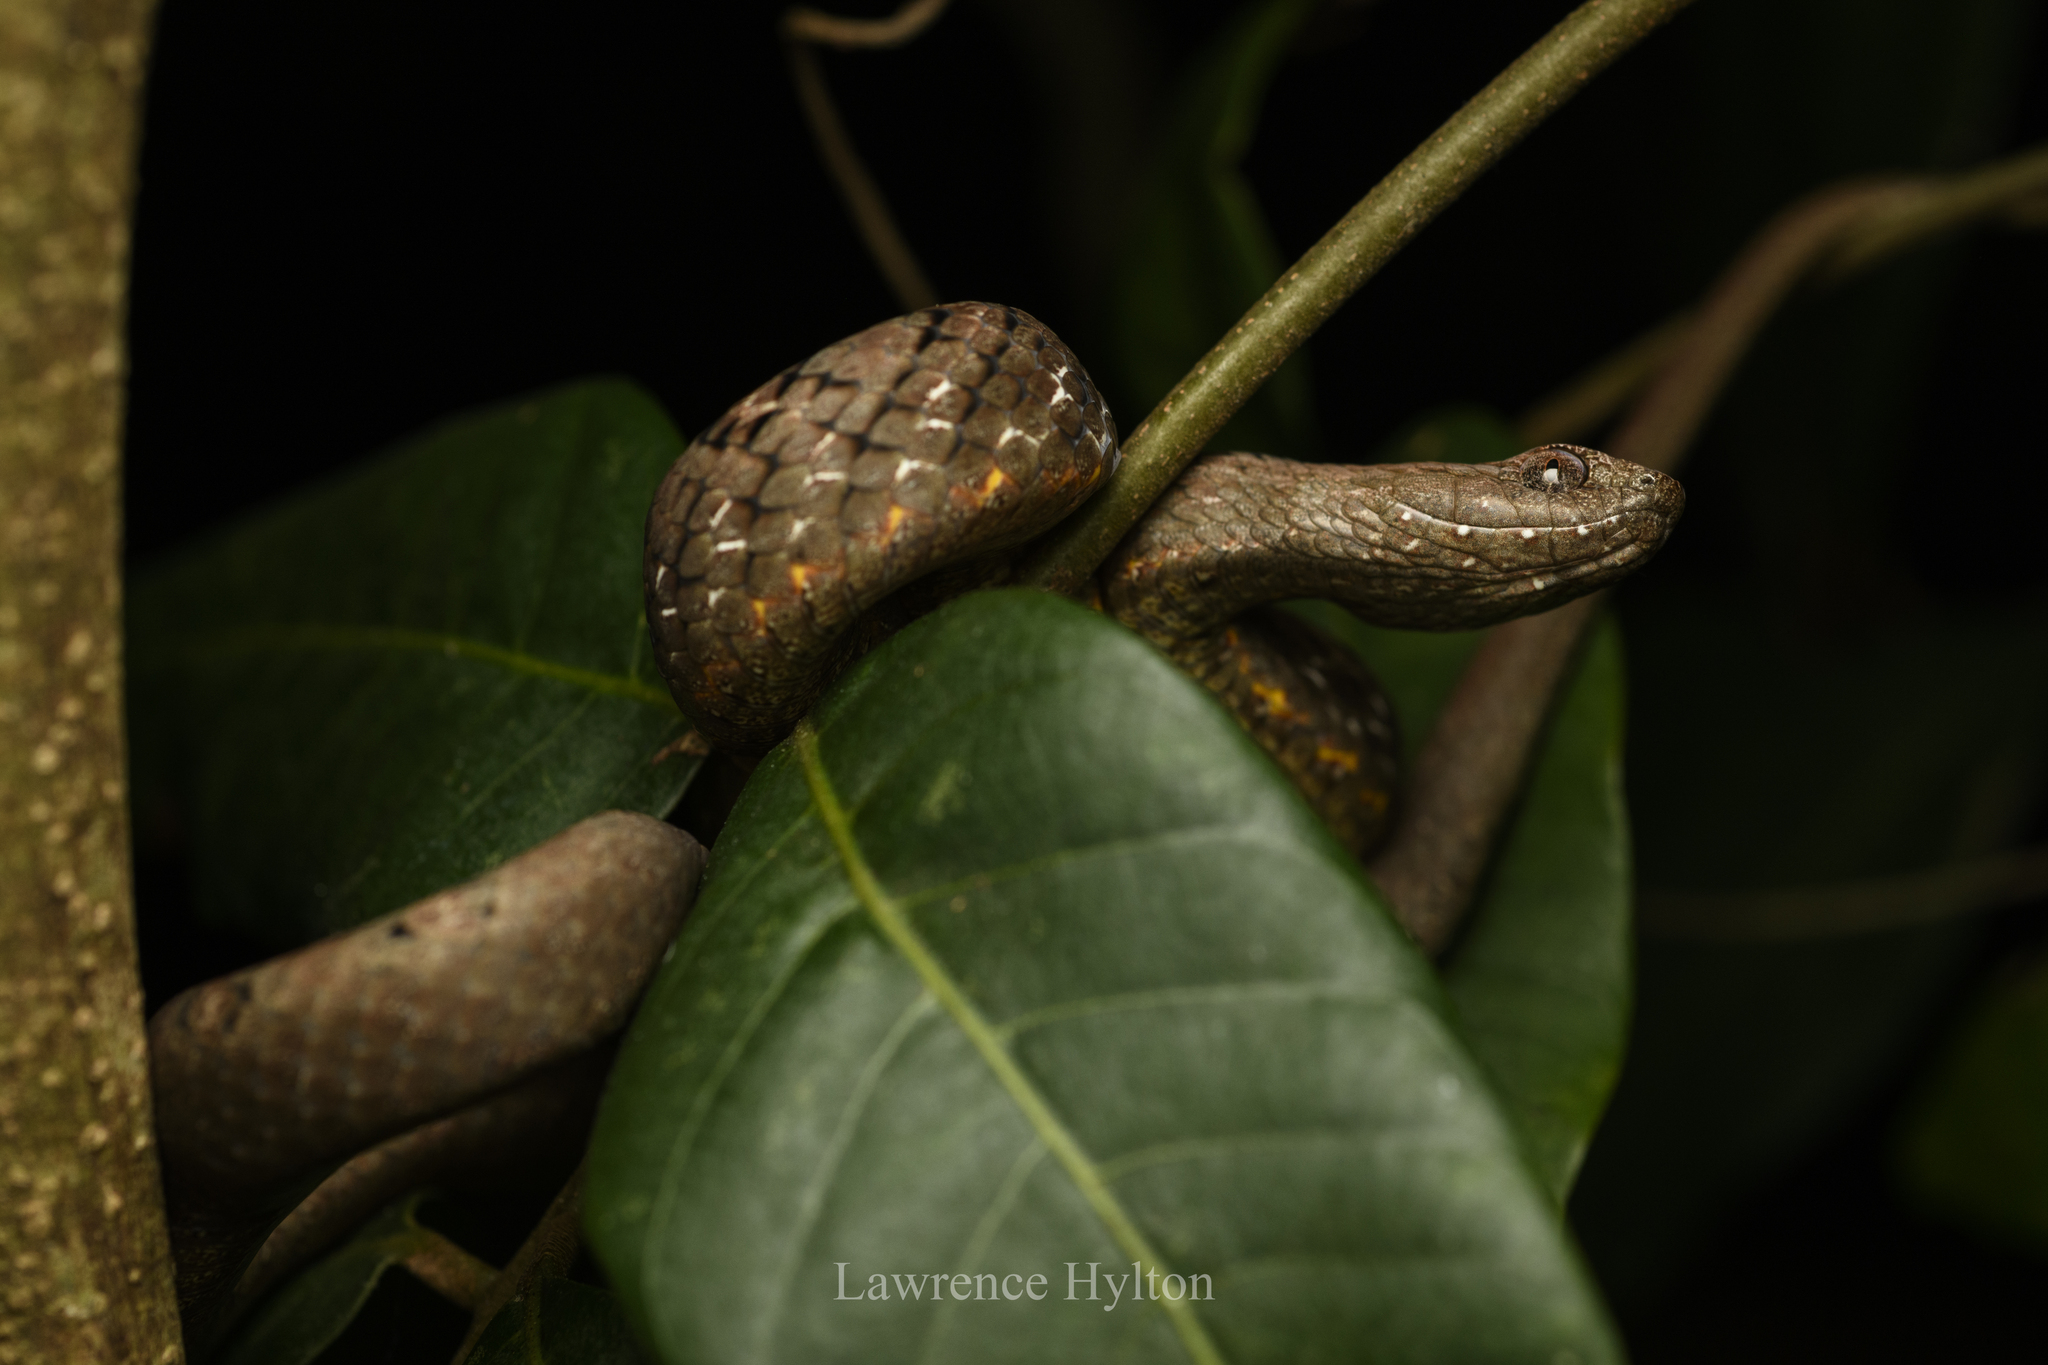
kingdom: Animalia
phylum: Chordata
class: Squamata
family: Pseudaspididae
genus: Psammodynastes
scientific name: Psammodynastes pulverulentus
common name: Common mock viper
